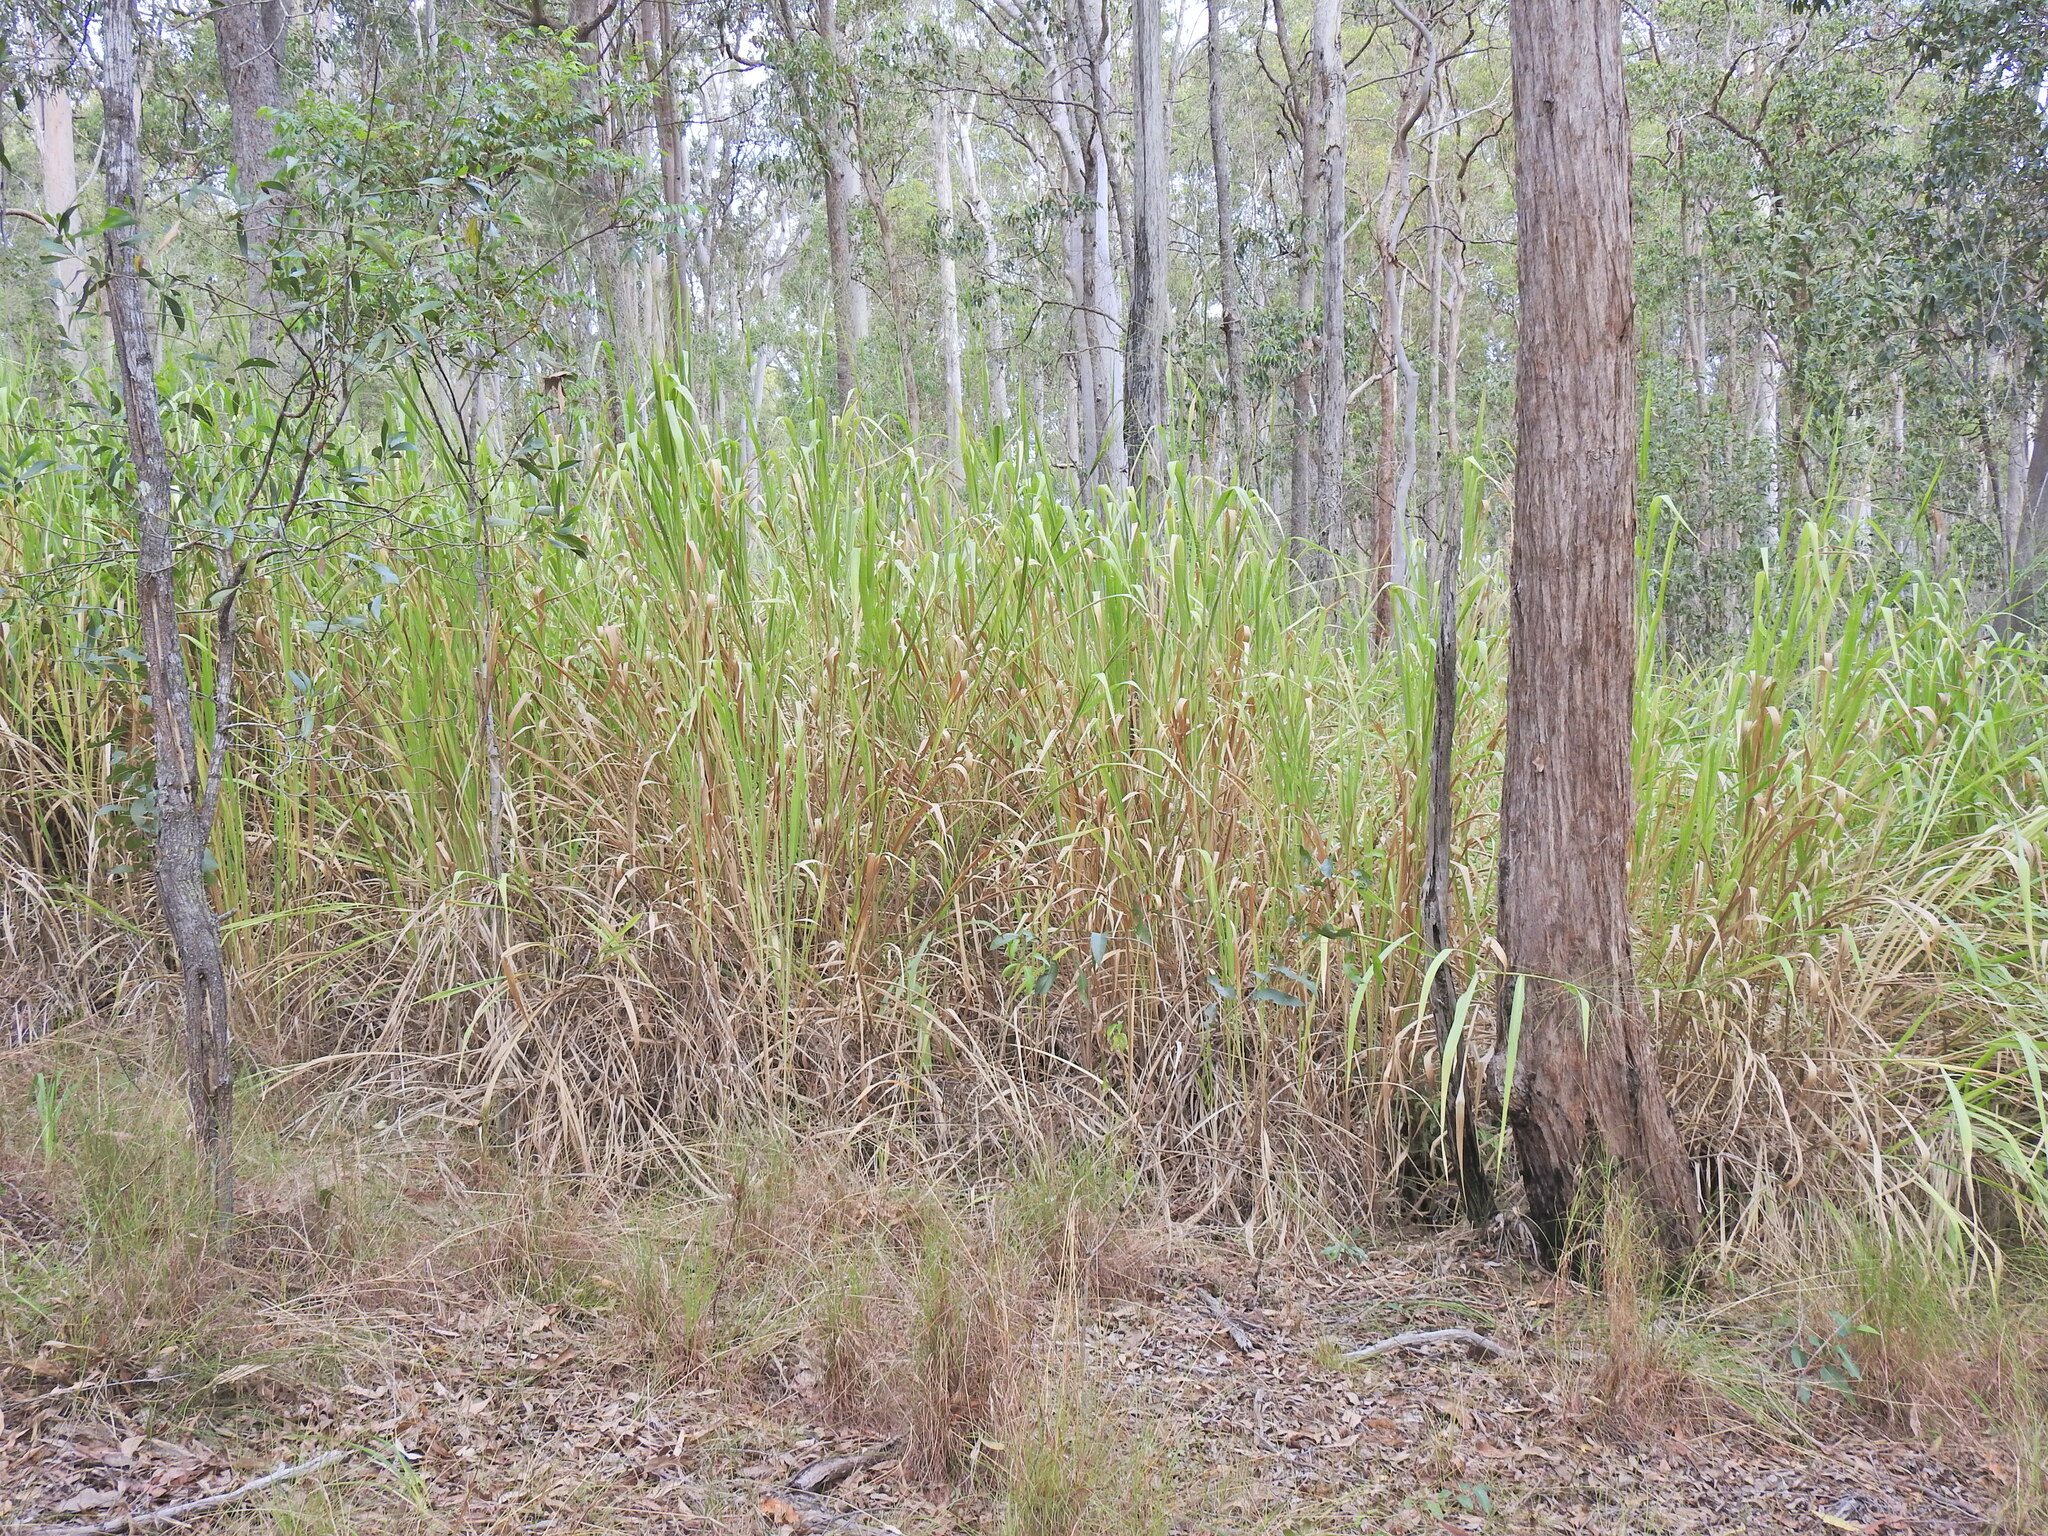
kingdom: Plantae
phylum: Tracheophyta
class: Liliopsida
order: Poales
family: Poaceae
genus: Megathyrsus
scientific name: Megathyrsus maximus
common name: Guineagrass
